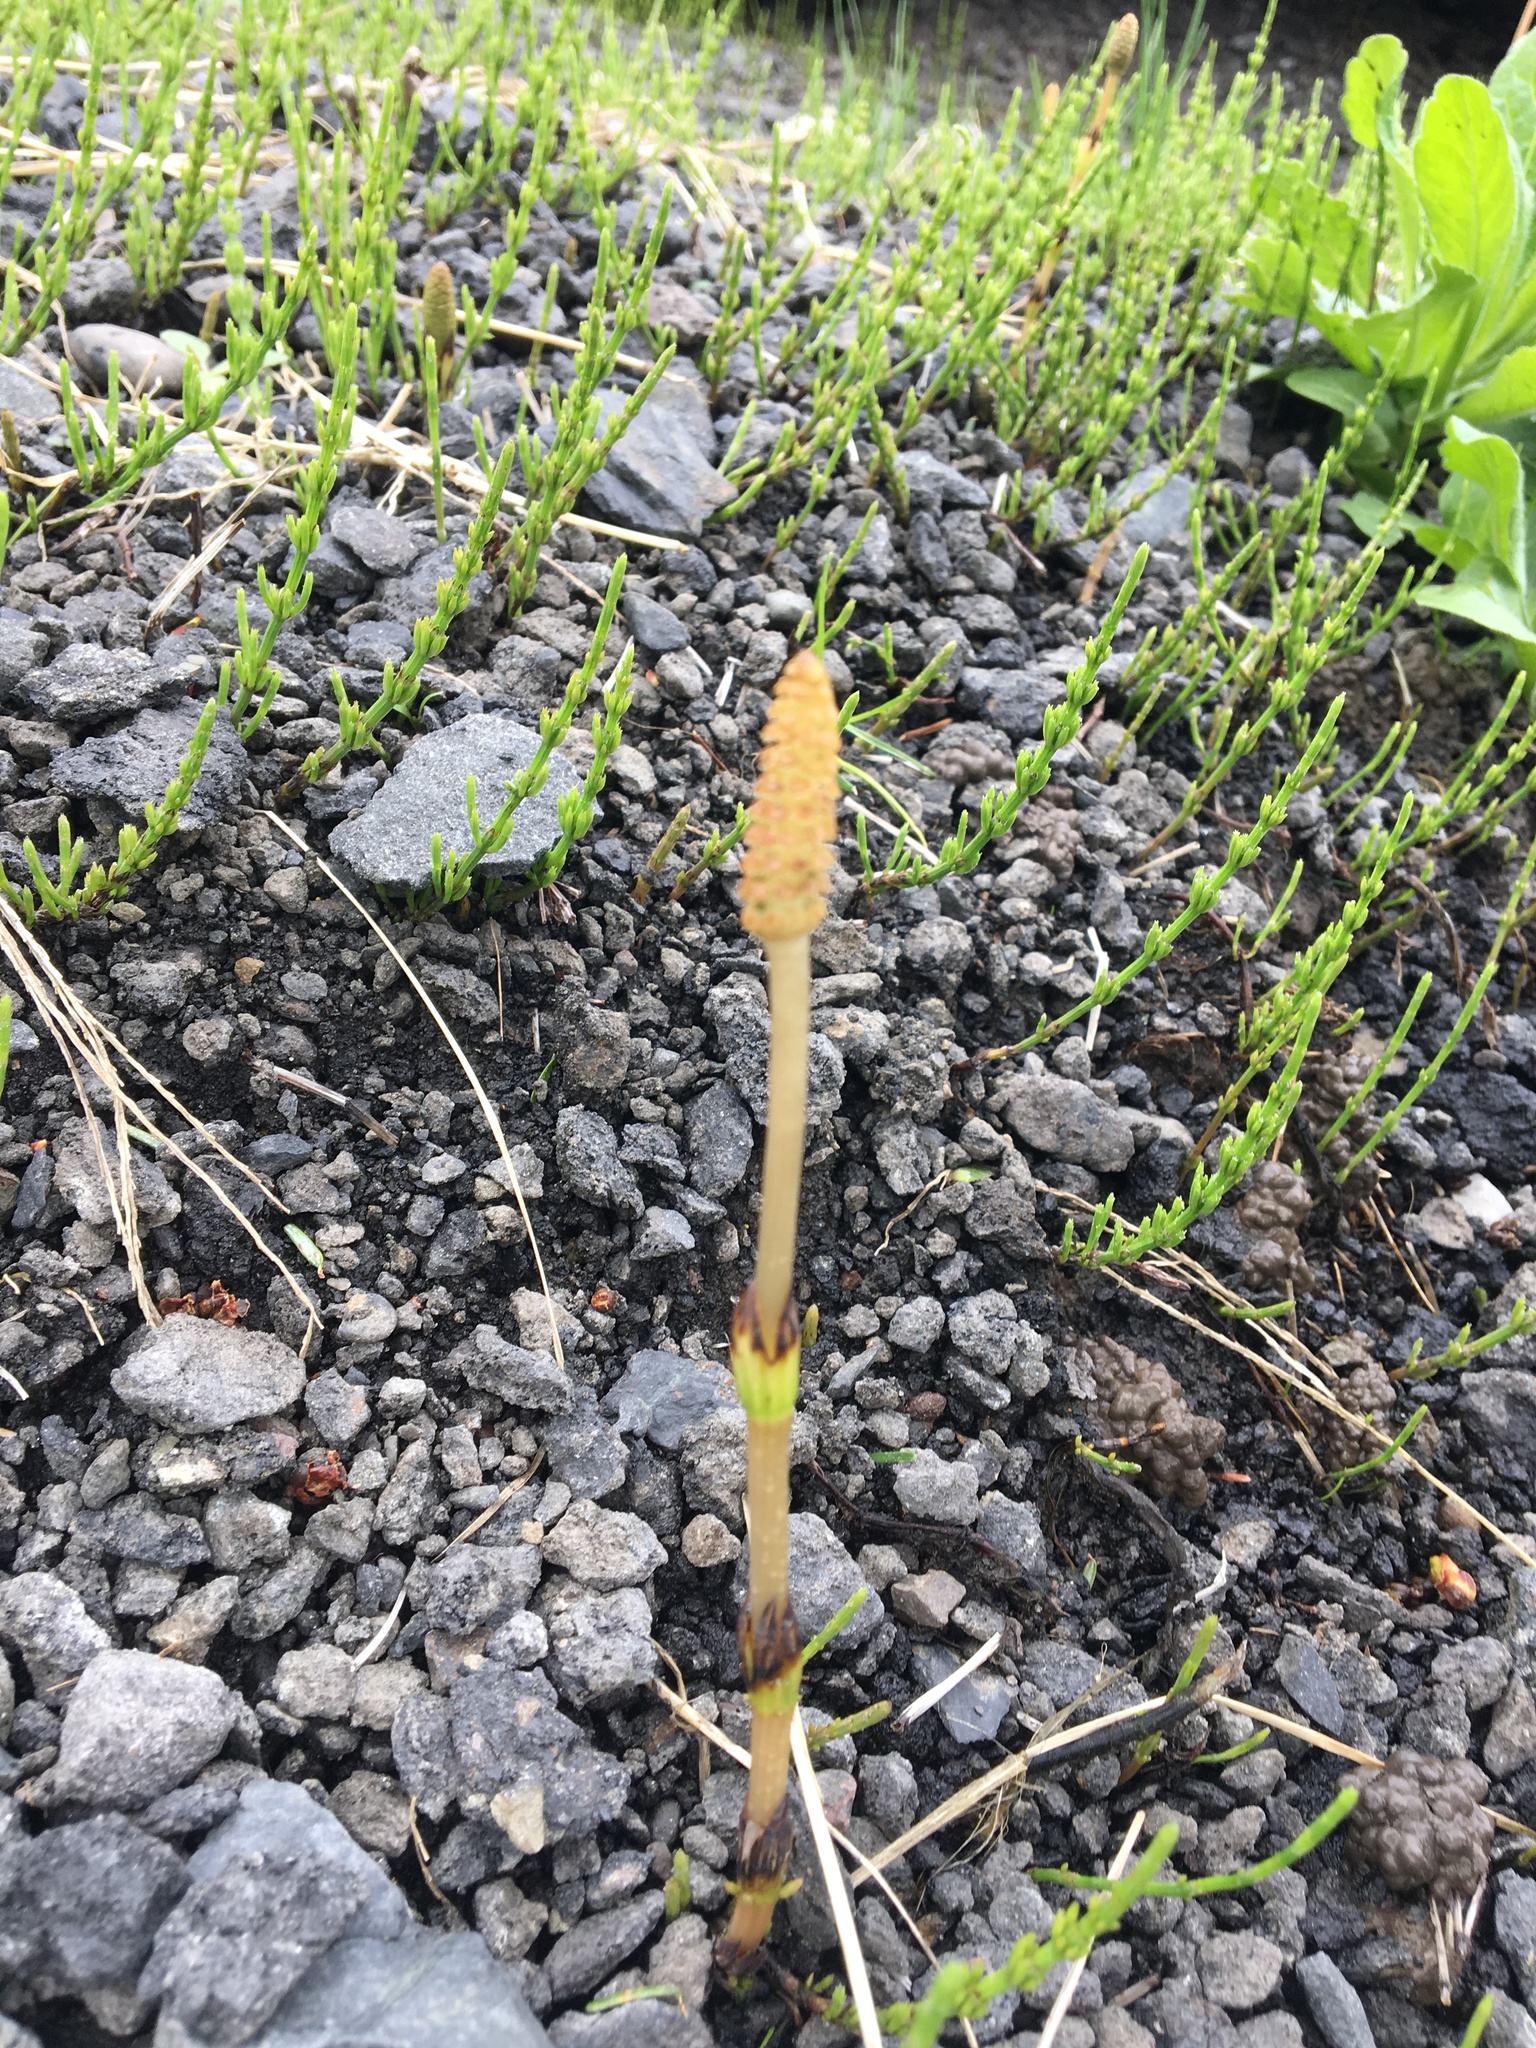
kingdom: Plantae
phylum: Tracheophyta
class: Polypodiopsida
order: Equisetales
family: Equisetaceae
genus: Equisetum
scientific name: Equisetum arvense
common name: Field horsetail
